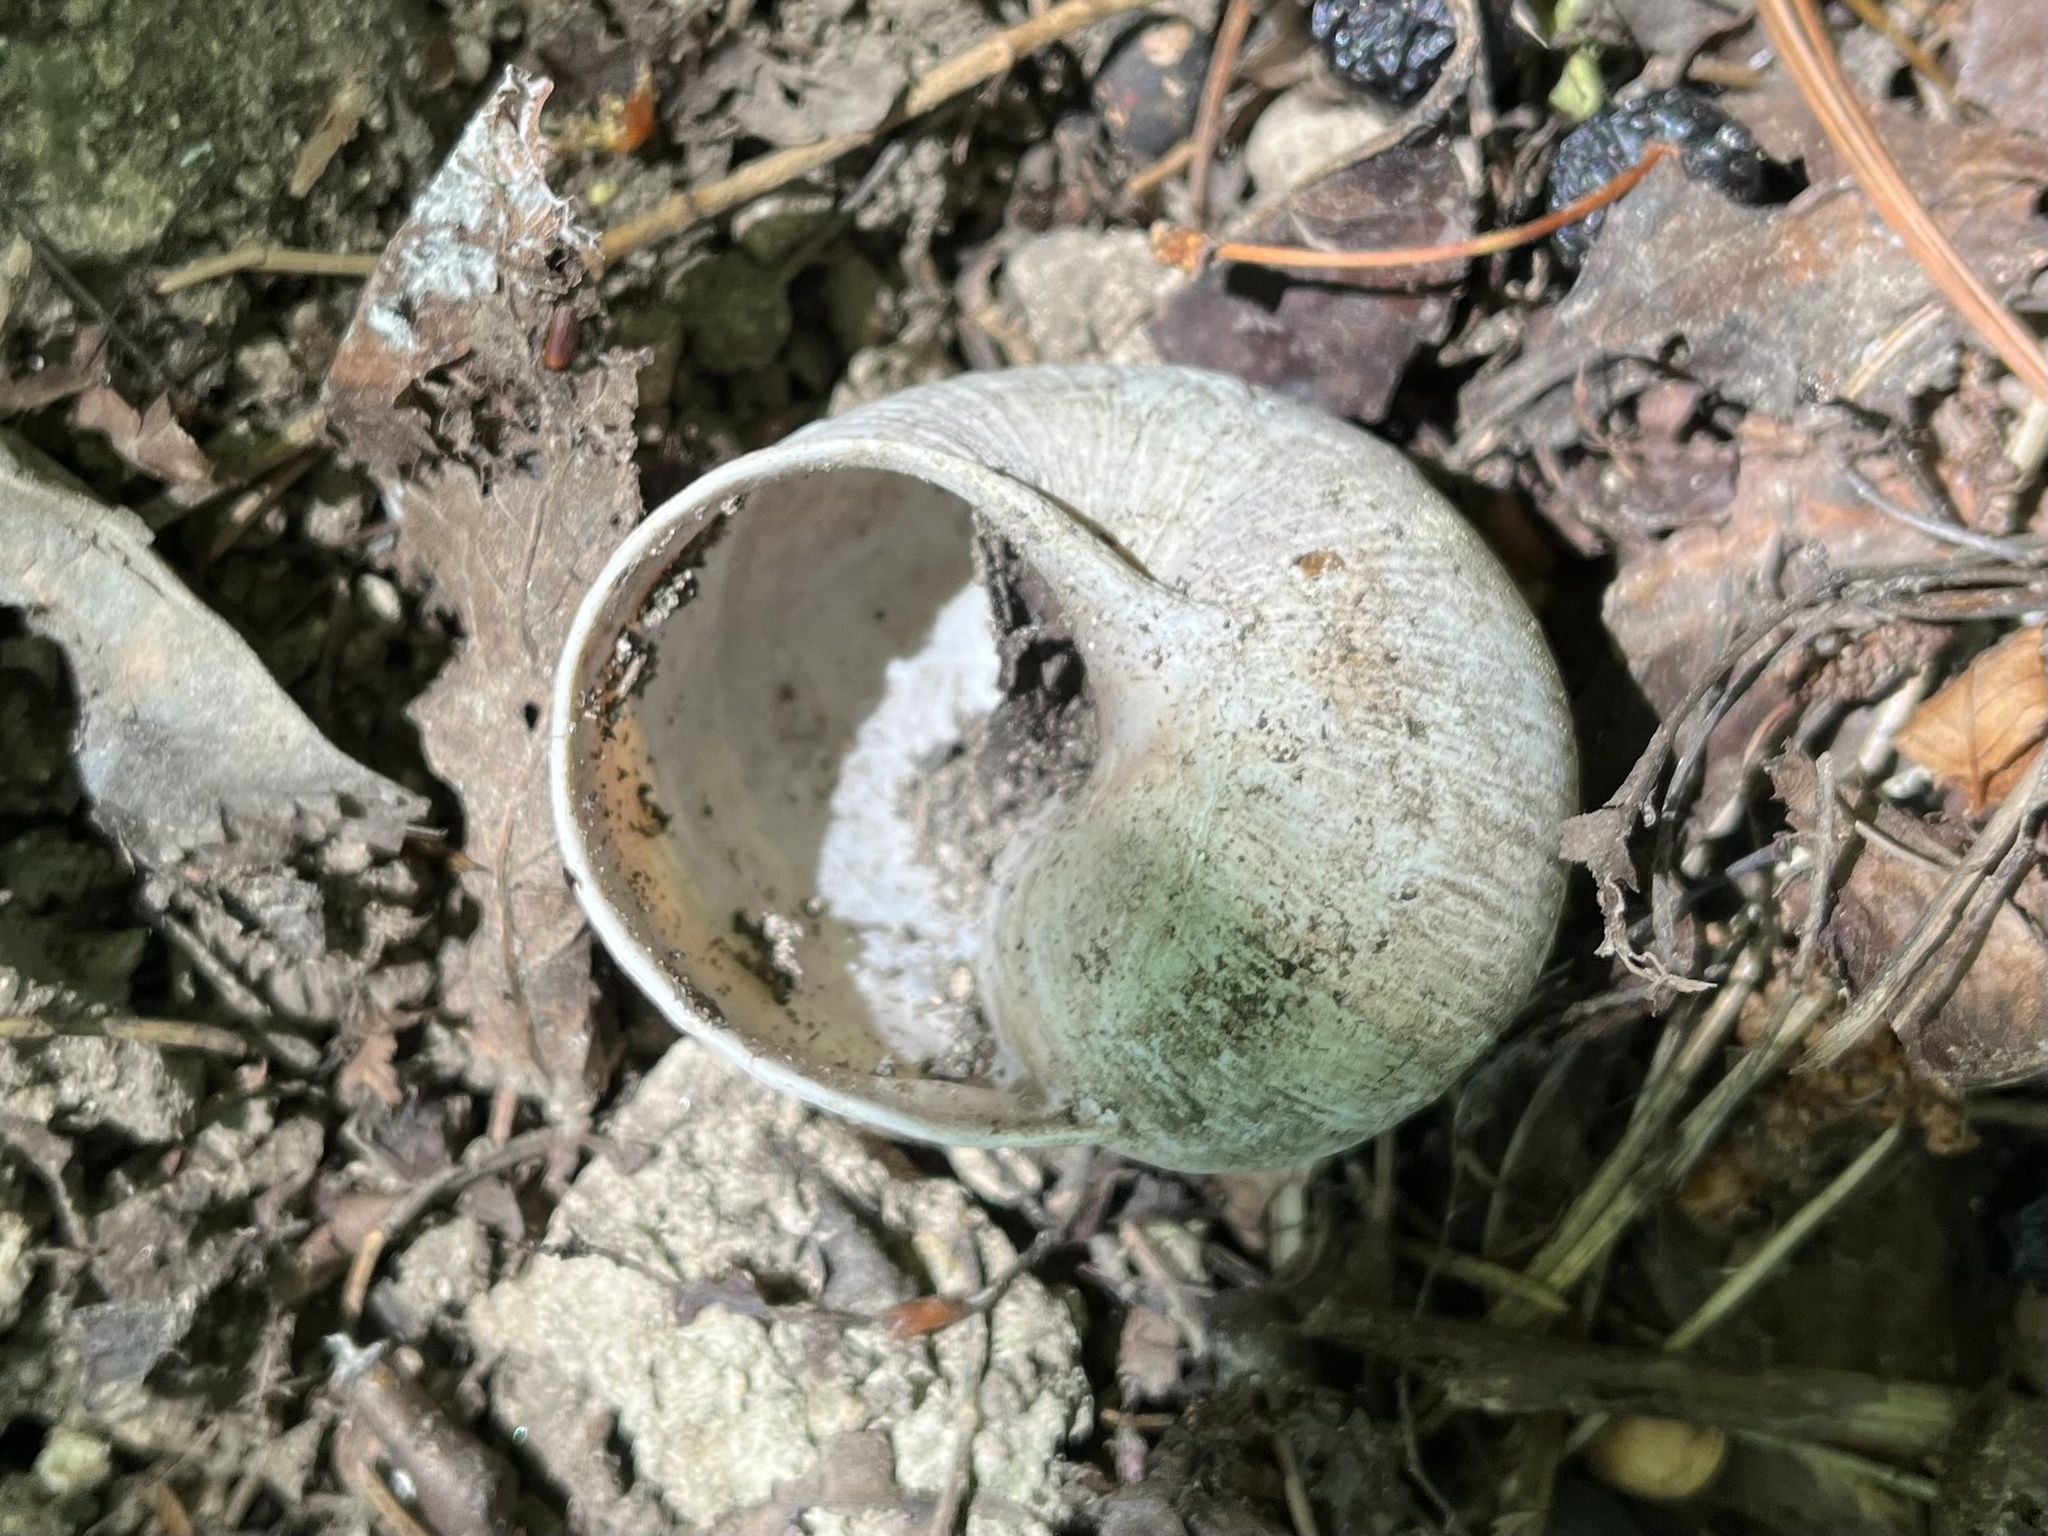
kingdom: Animalia
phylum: Mollusca
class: Gastropoda
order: Stylommatophora
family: Helicidae
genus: Helix
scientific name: Helix pomatia
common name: Roman snail
